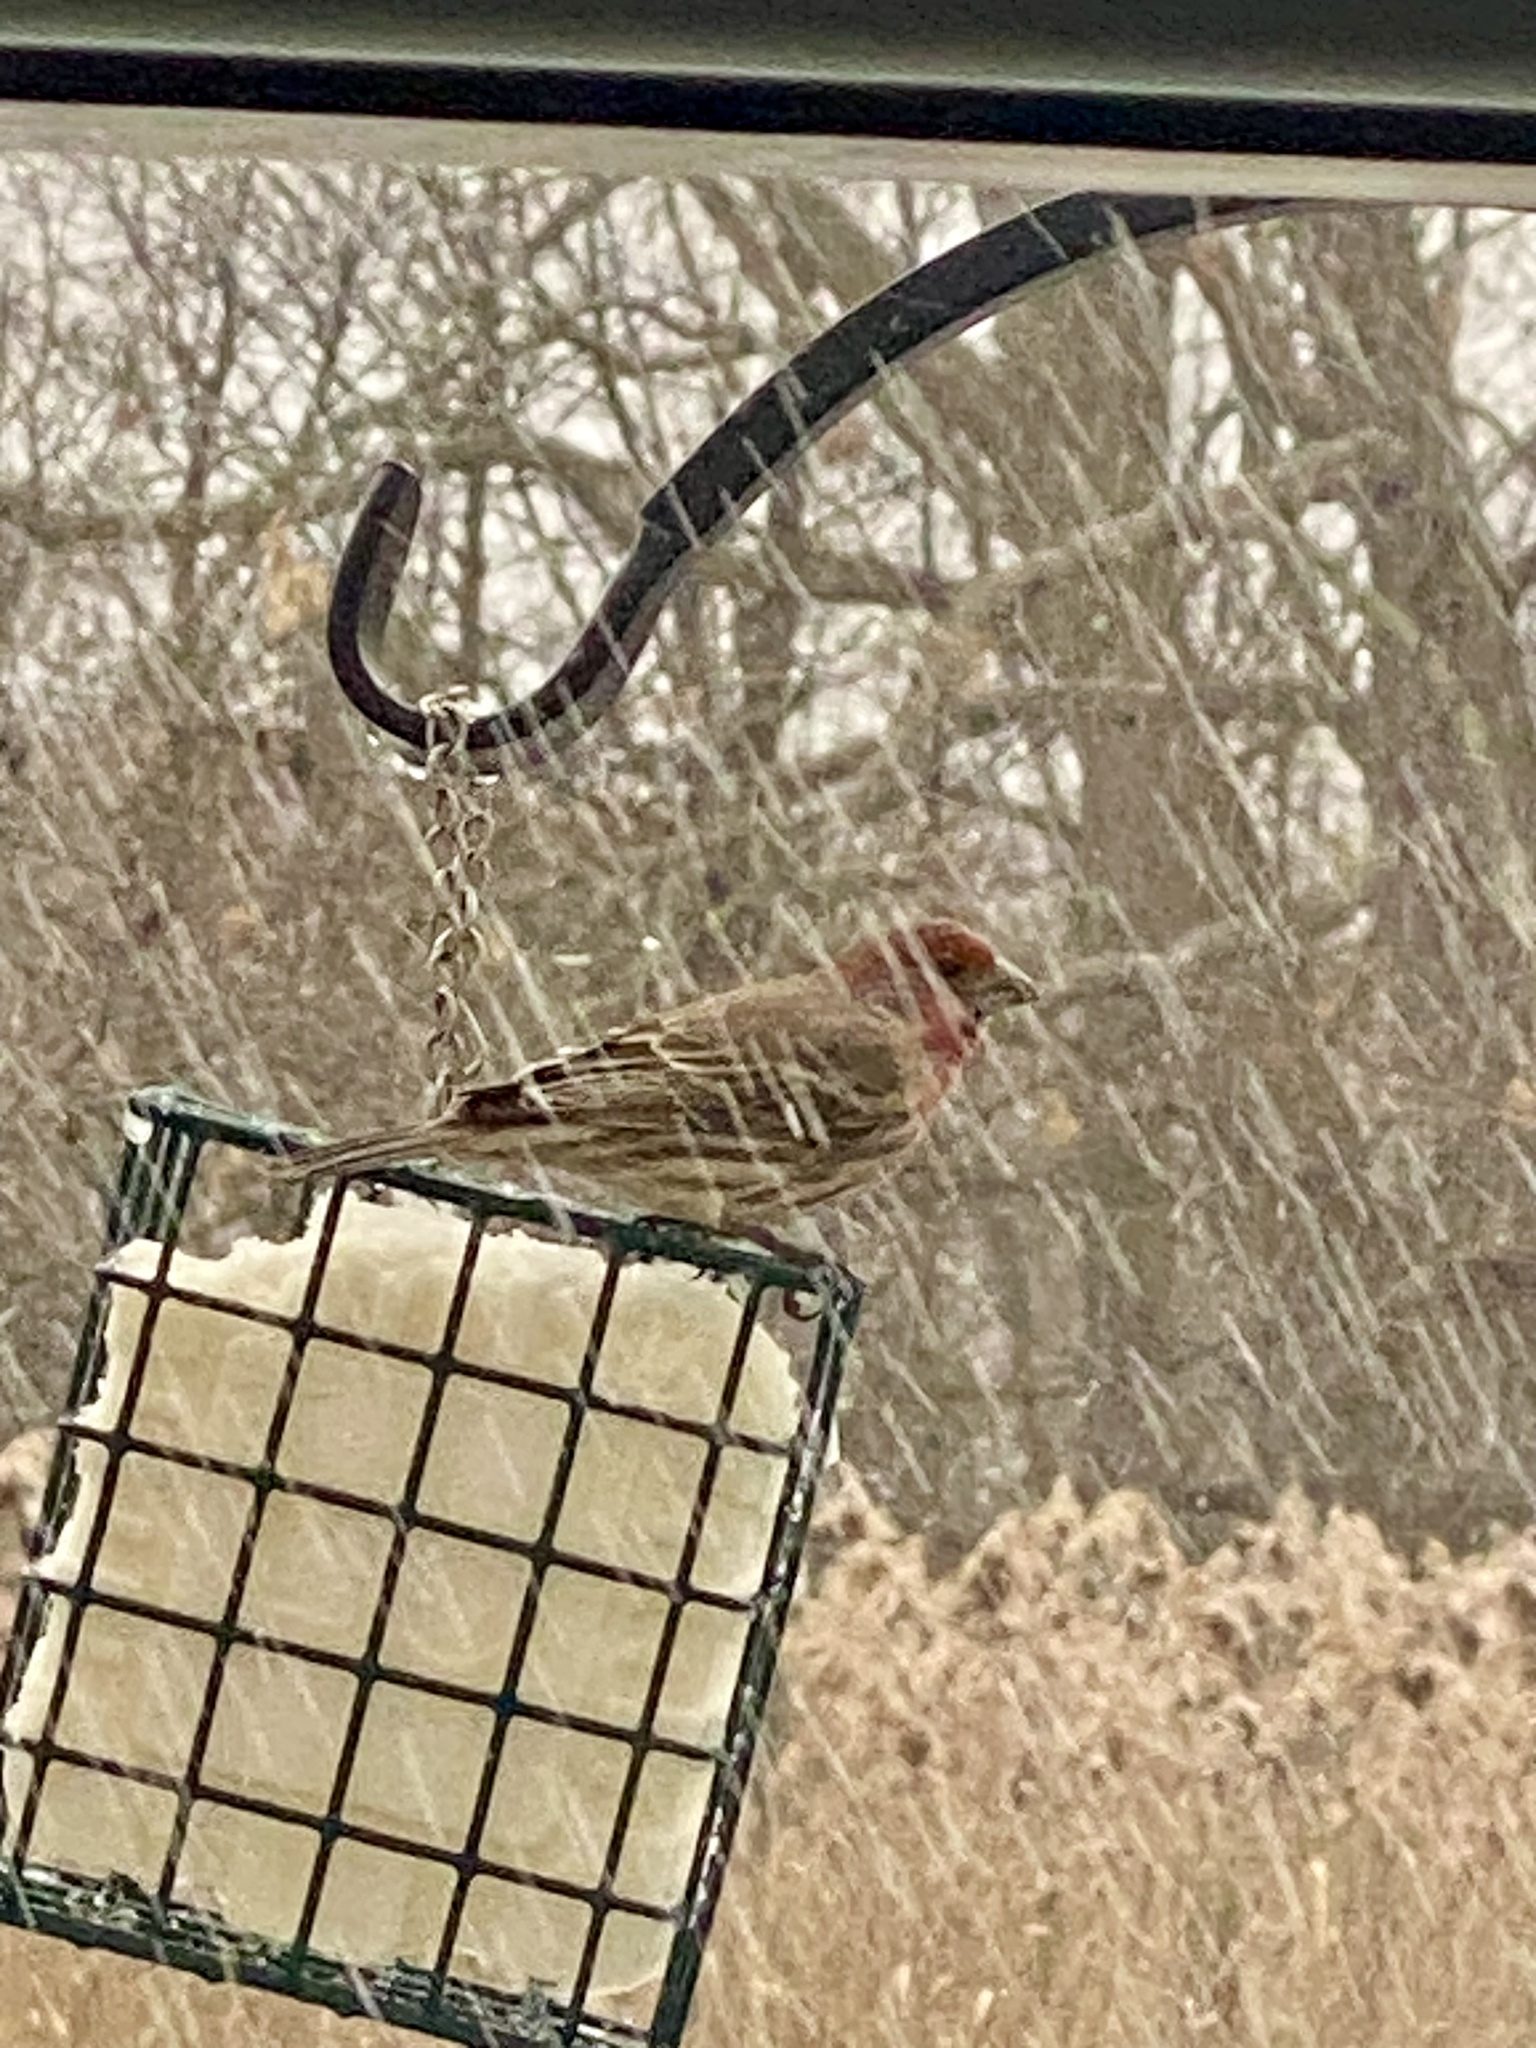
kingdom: Animalia
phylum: Chordata
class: Aves
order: Passeriformes
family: Fringillidae
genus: Haemorhous
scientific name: Haemorhous mexicanus
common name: House finch
